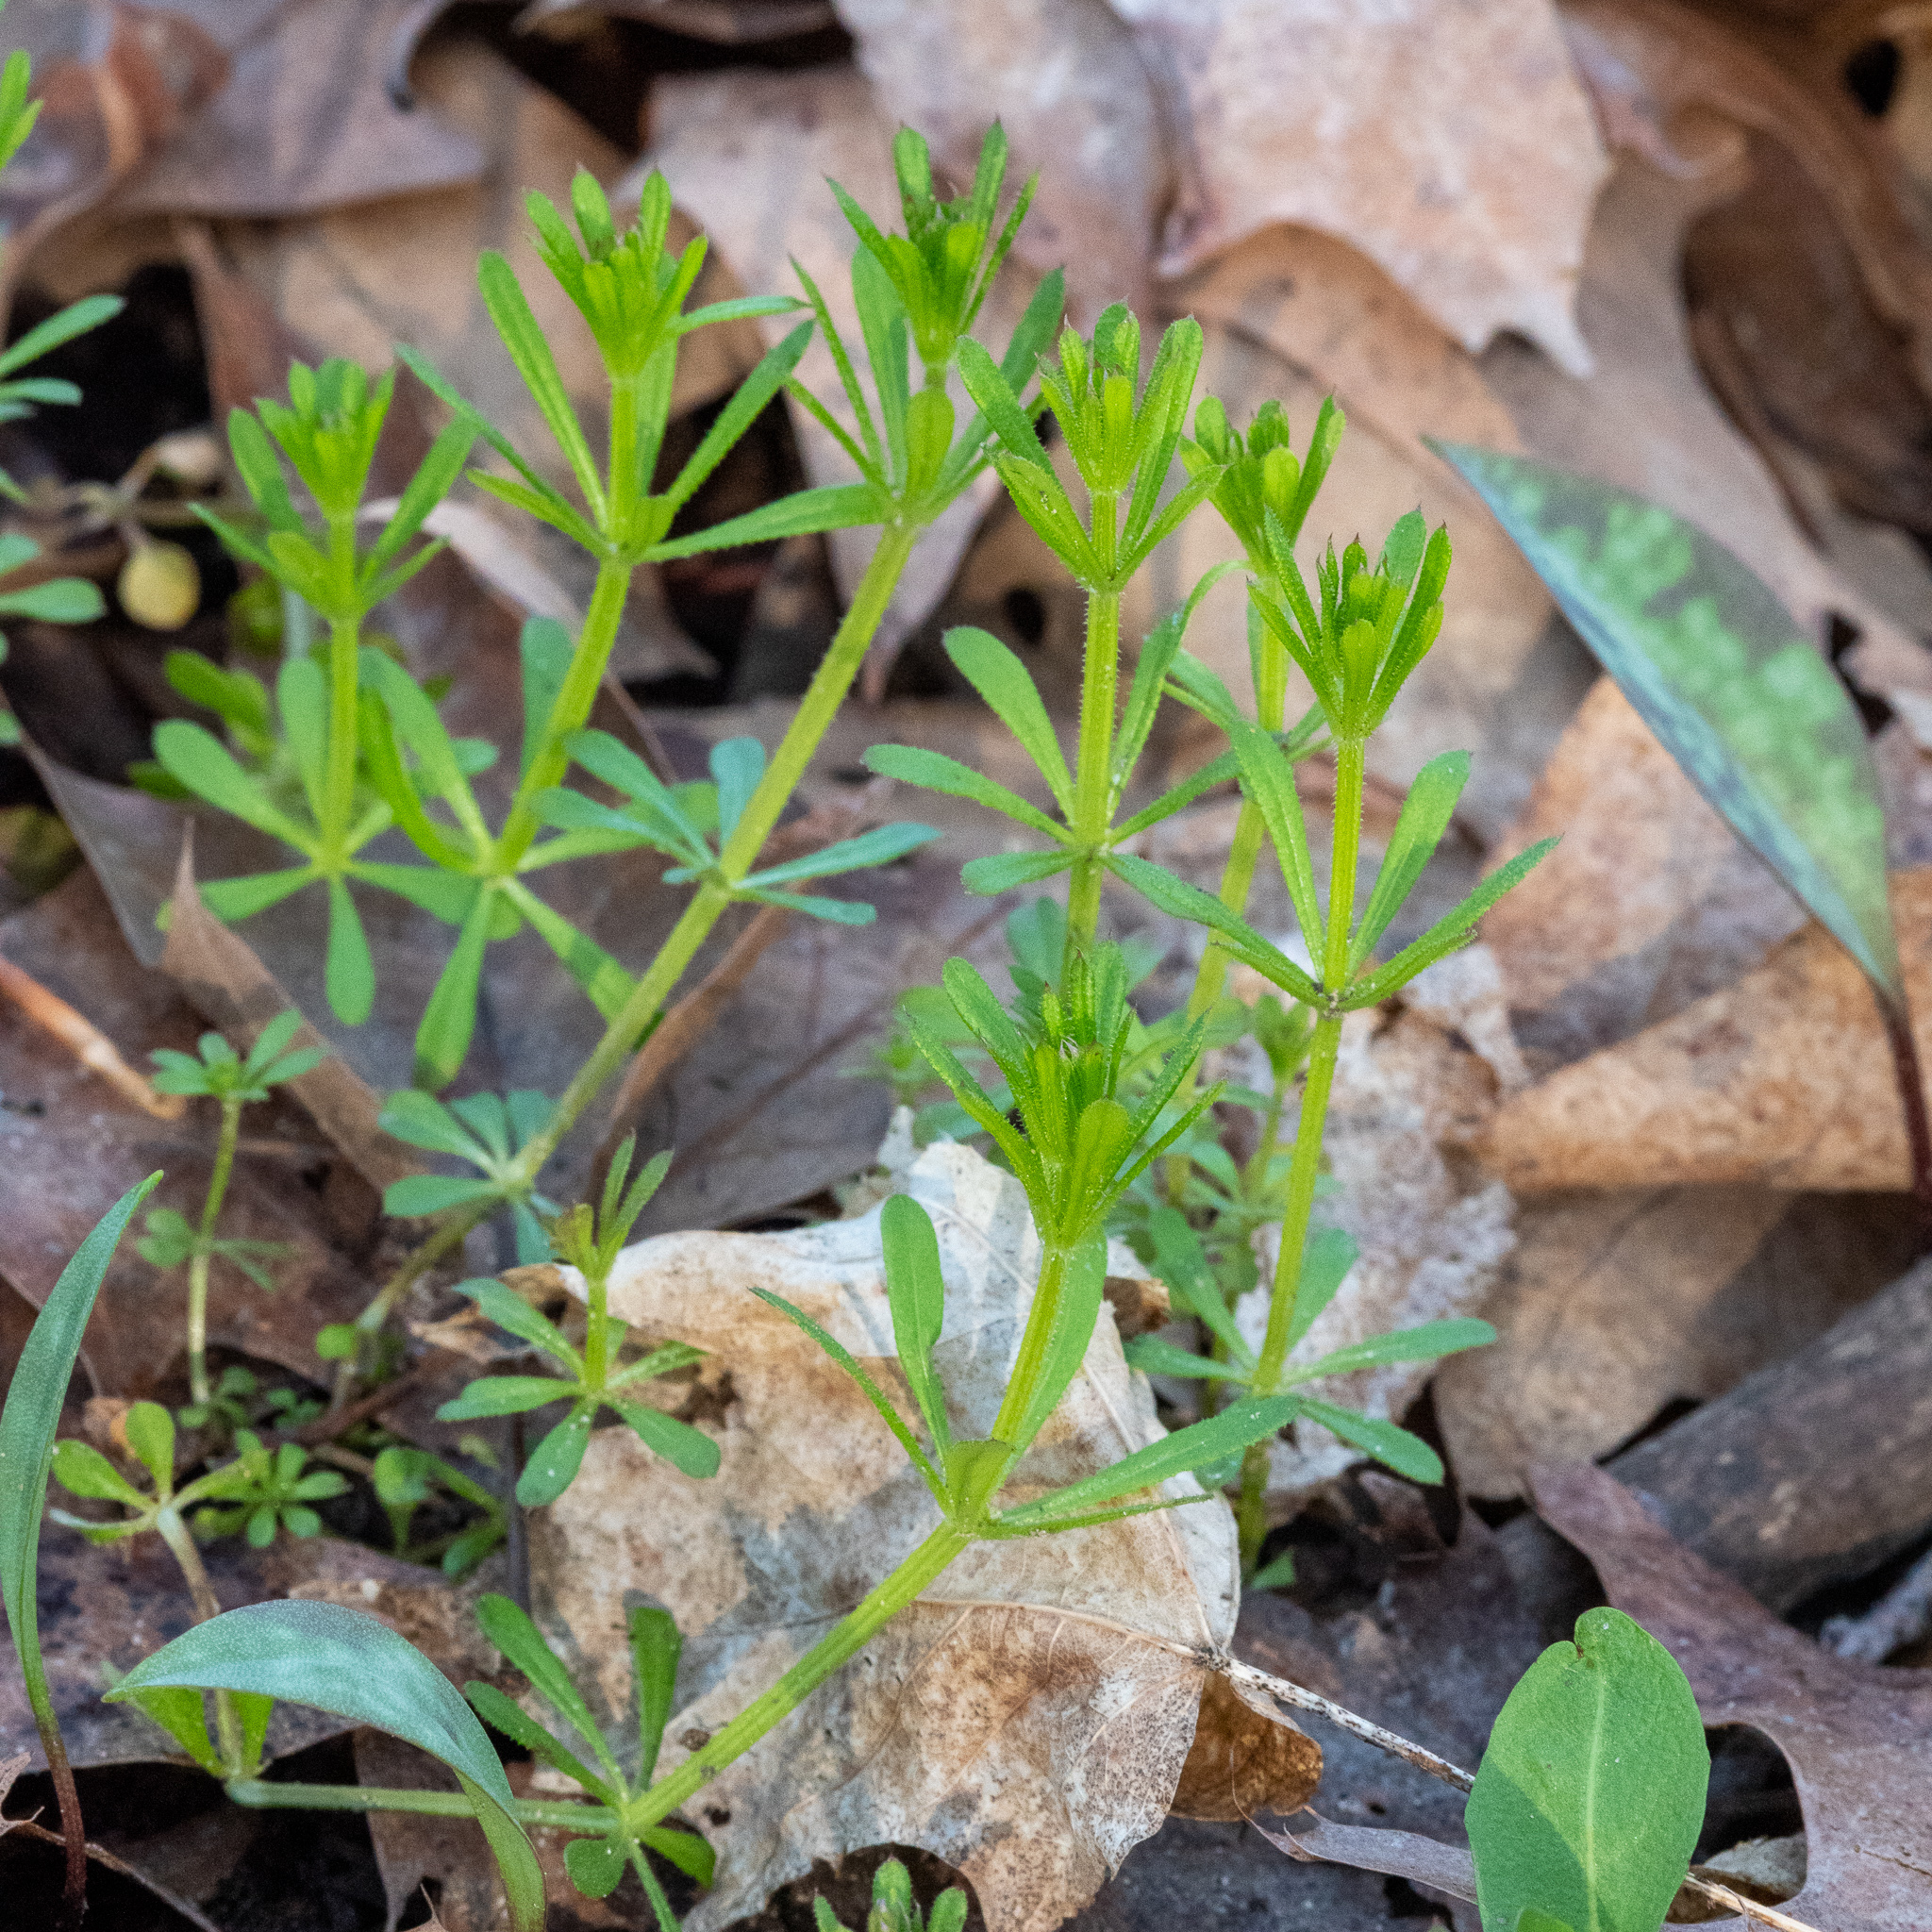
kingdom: Plantae
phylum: Tracheophyta
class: Magnoliopsida
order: Gentianales
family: Rubiaceae
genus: Galium
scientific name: Galium aparine
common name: Cleavers
